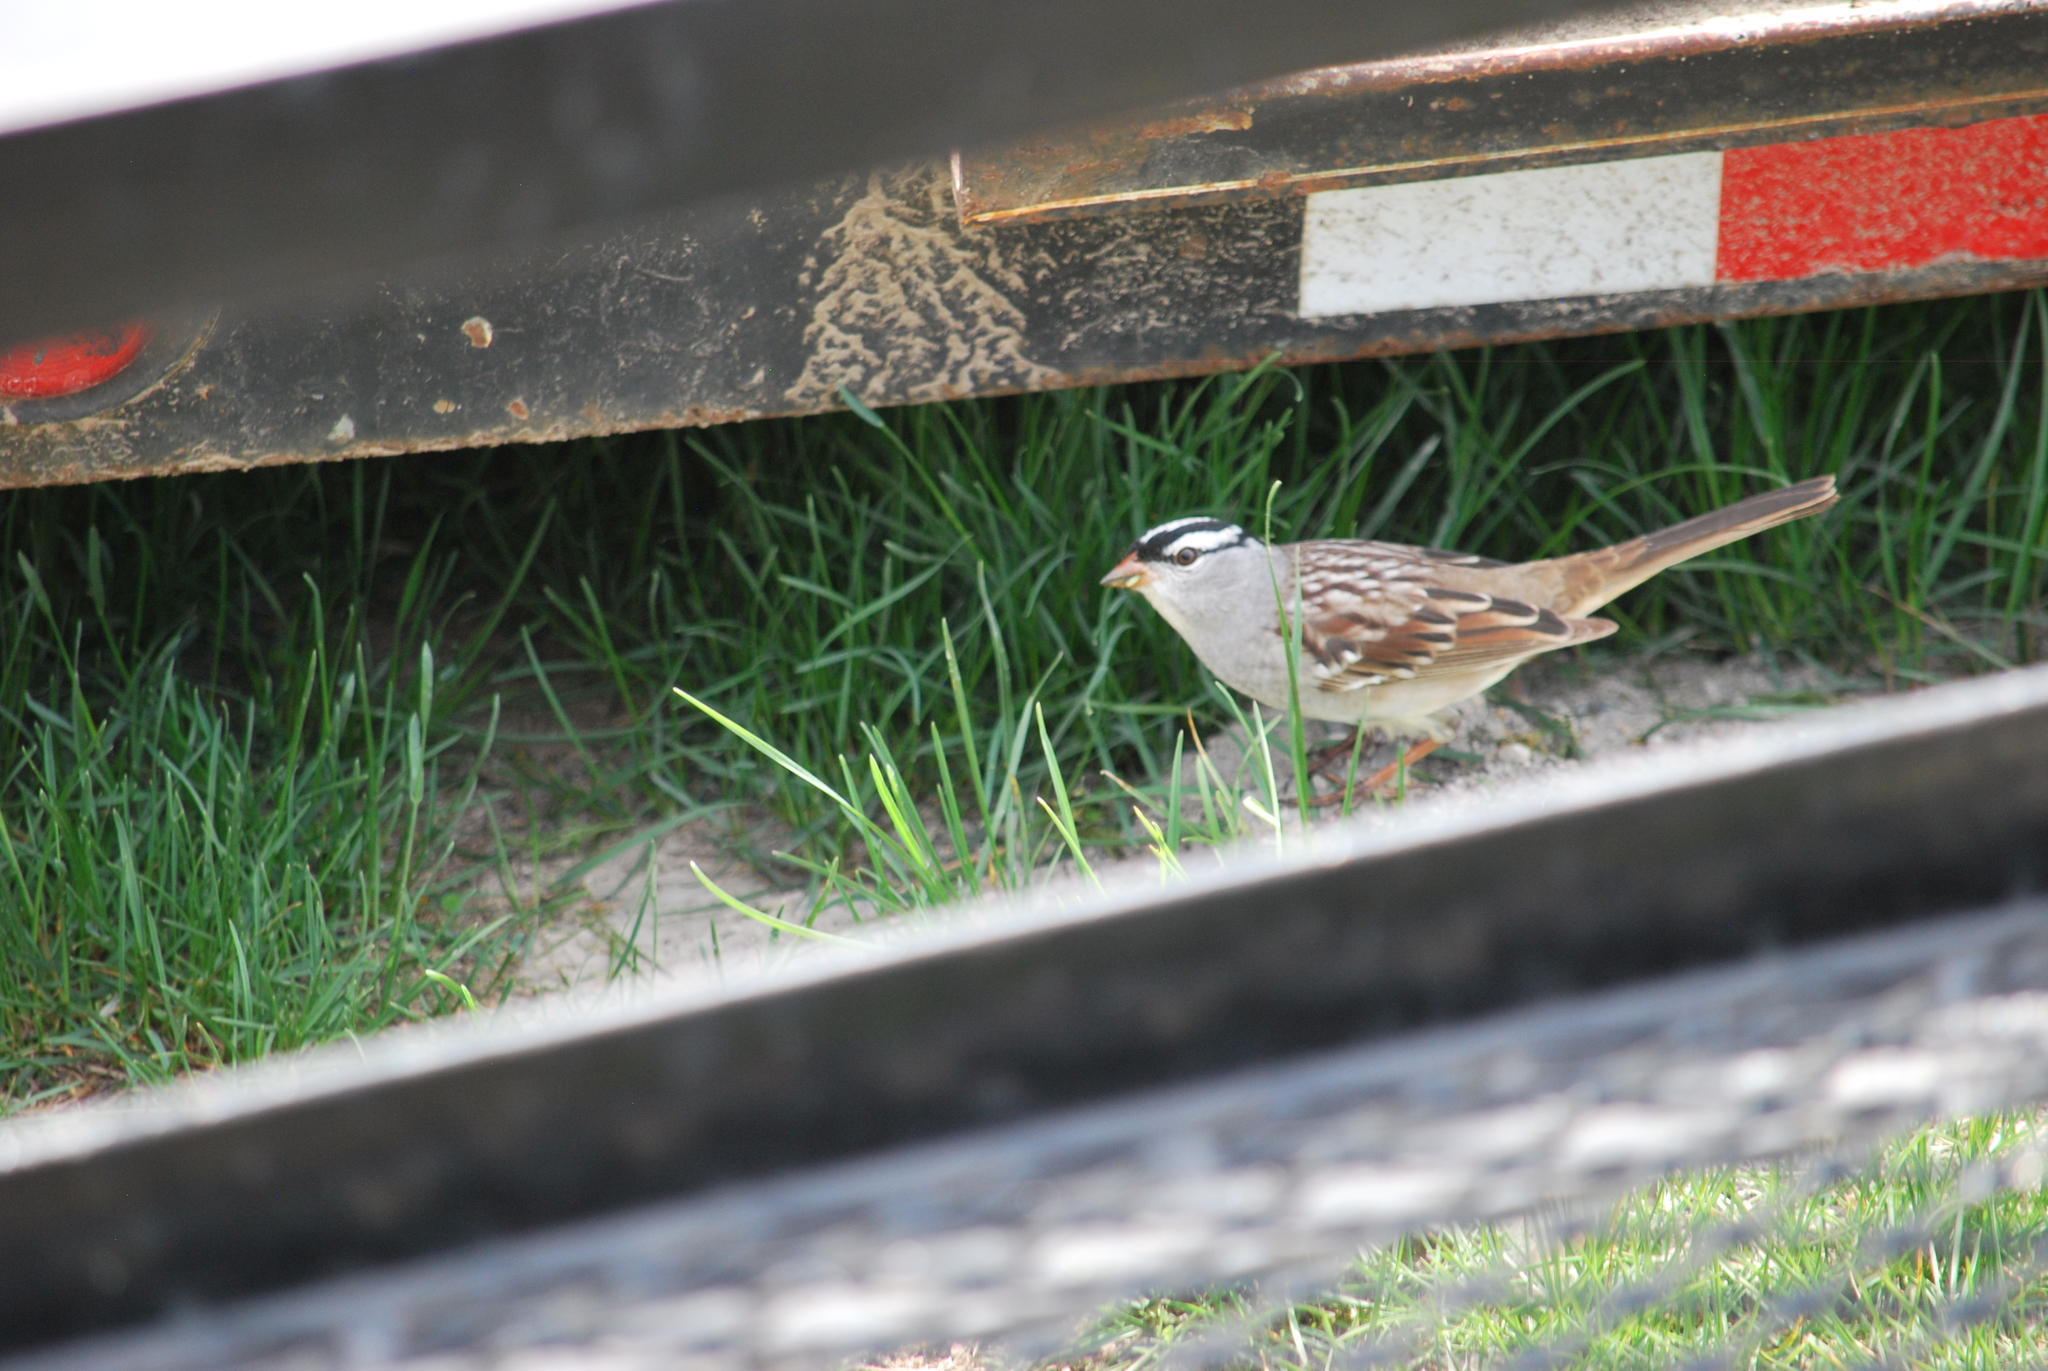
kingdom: Animalia
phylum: Chordata
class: Aves
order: Passeriformes
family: Passerellidae
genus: Zonotrichia
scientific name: Zonotrichia leucophrys
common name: White-crowned sparrow
